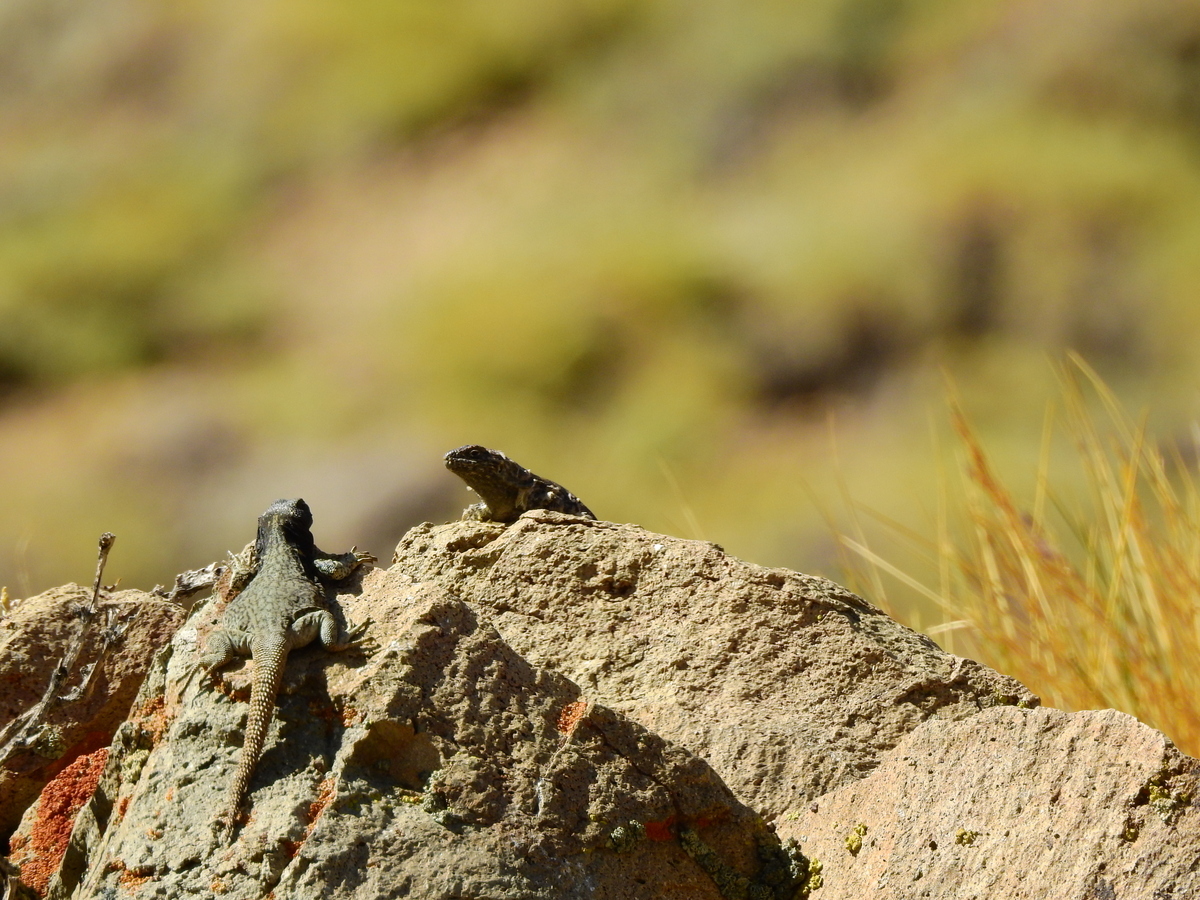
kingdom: Animalia
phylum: Chordata
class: Squamata
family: Liolaemidae
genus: Phymaturus
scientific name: Phymaturus verdugo
